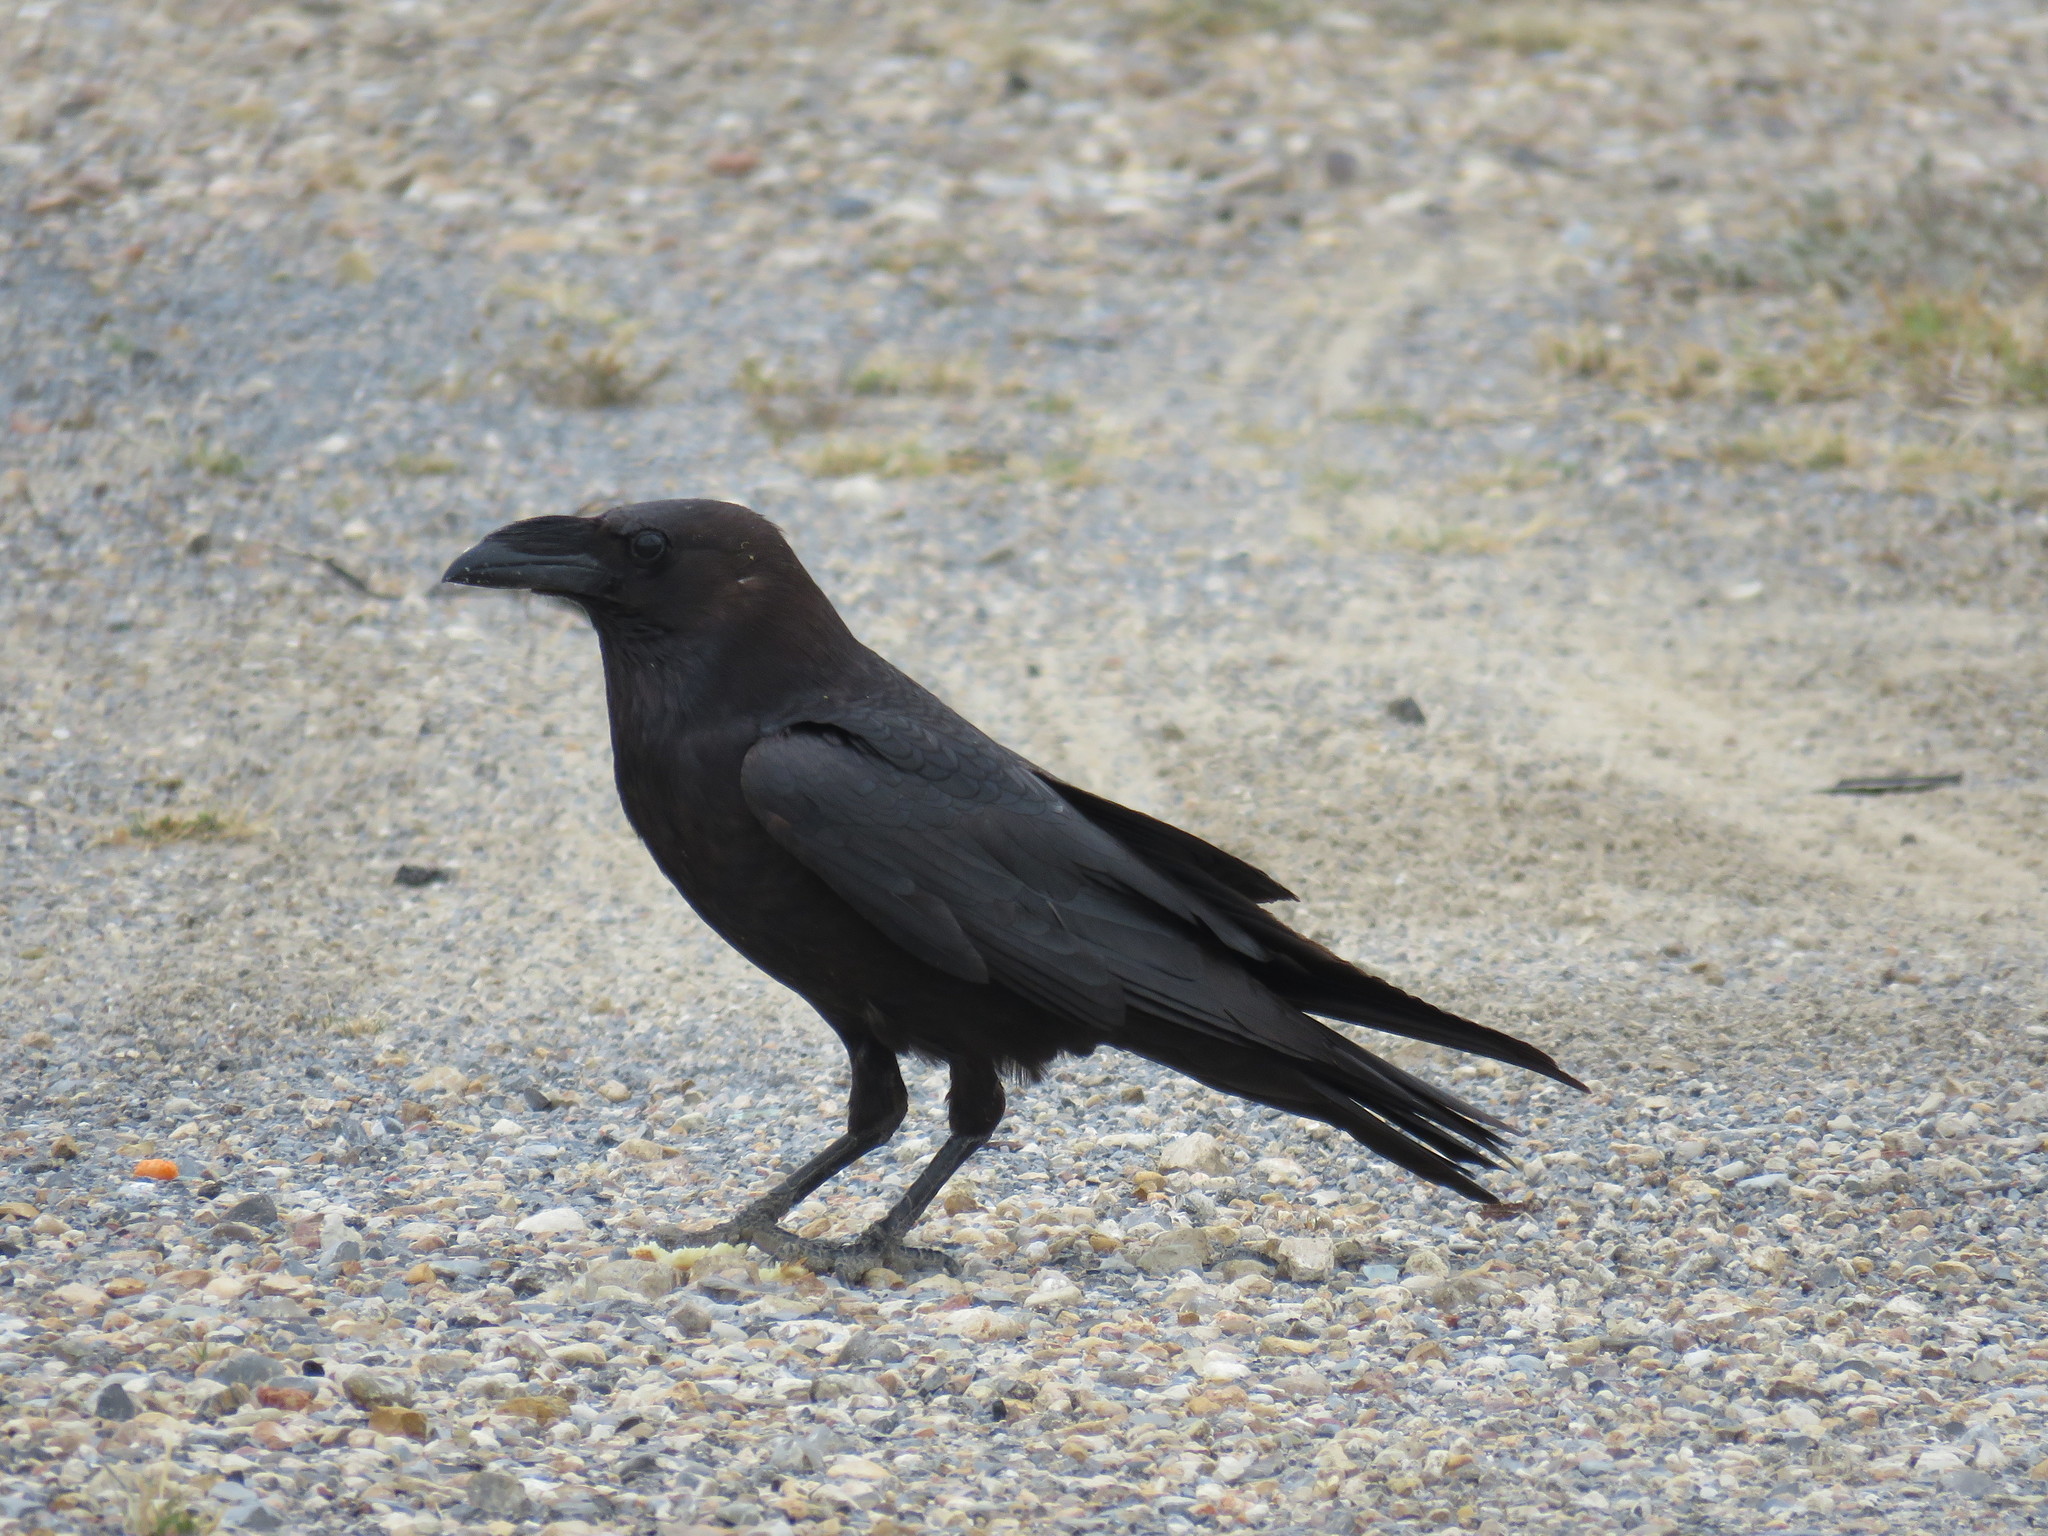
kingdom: Animalia
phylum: Chordata
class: Aves
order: Passeriformes
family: Corvidae
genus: Corvus
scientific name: Corvus corax
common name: Common raven
